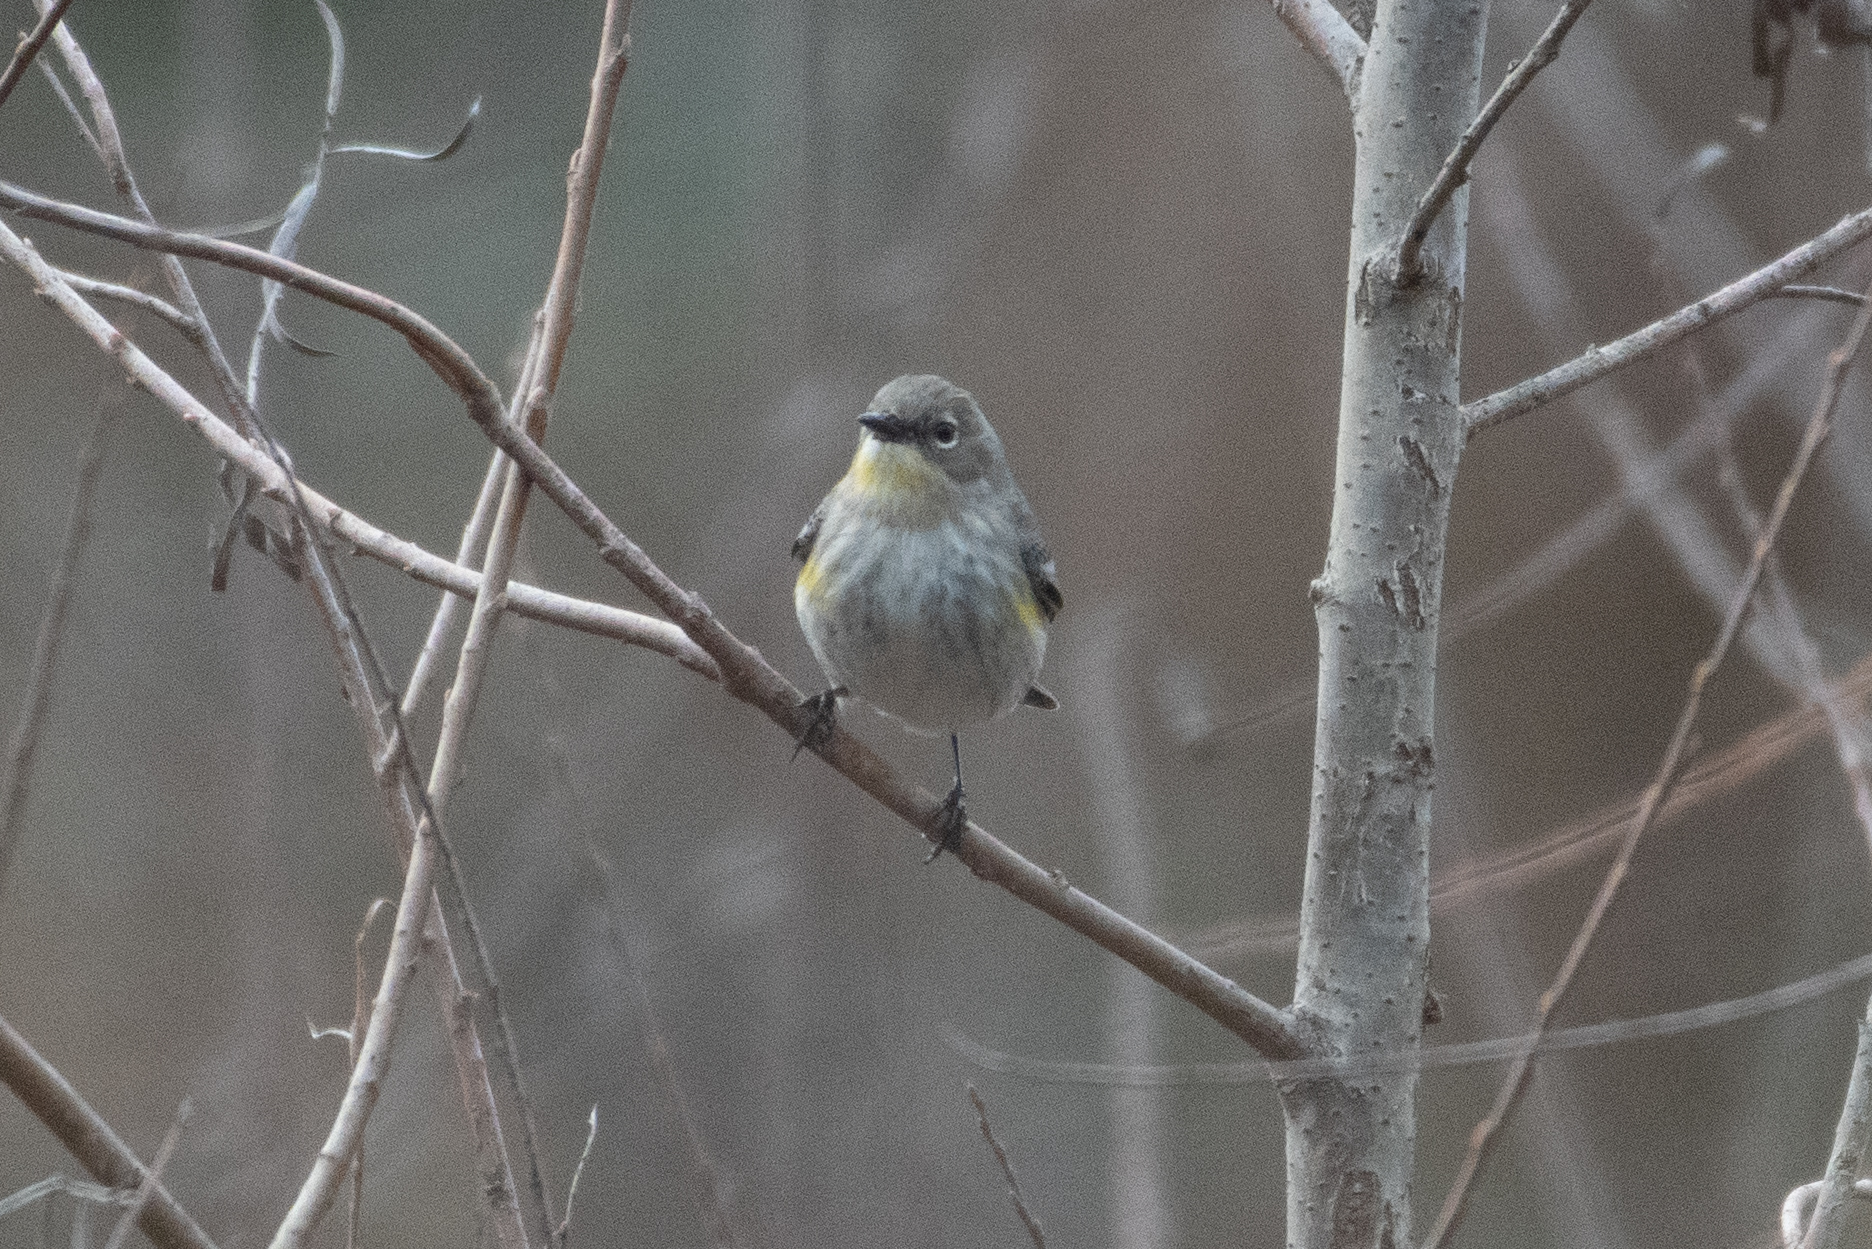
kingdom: Animalia
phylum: Chordata
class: Aves
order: Passeriformes
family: Parulidae
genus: Setophaga
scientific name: Setophaga coronata
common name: Myrtle warbler
